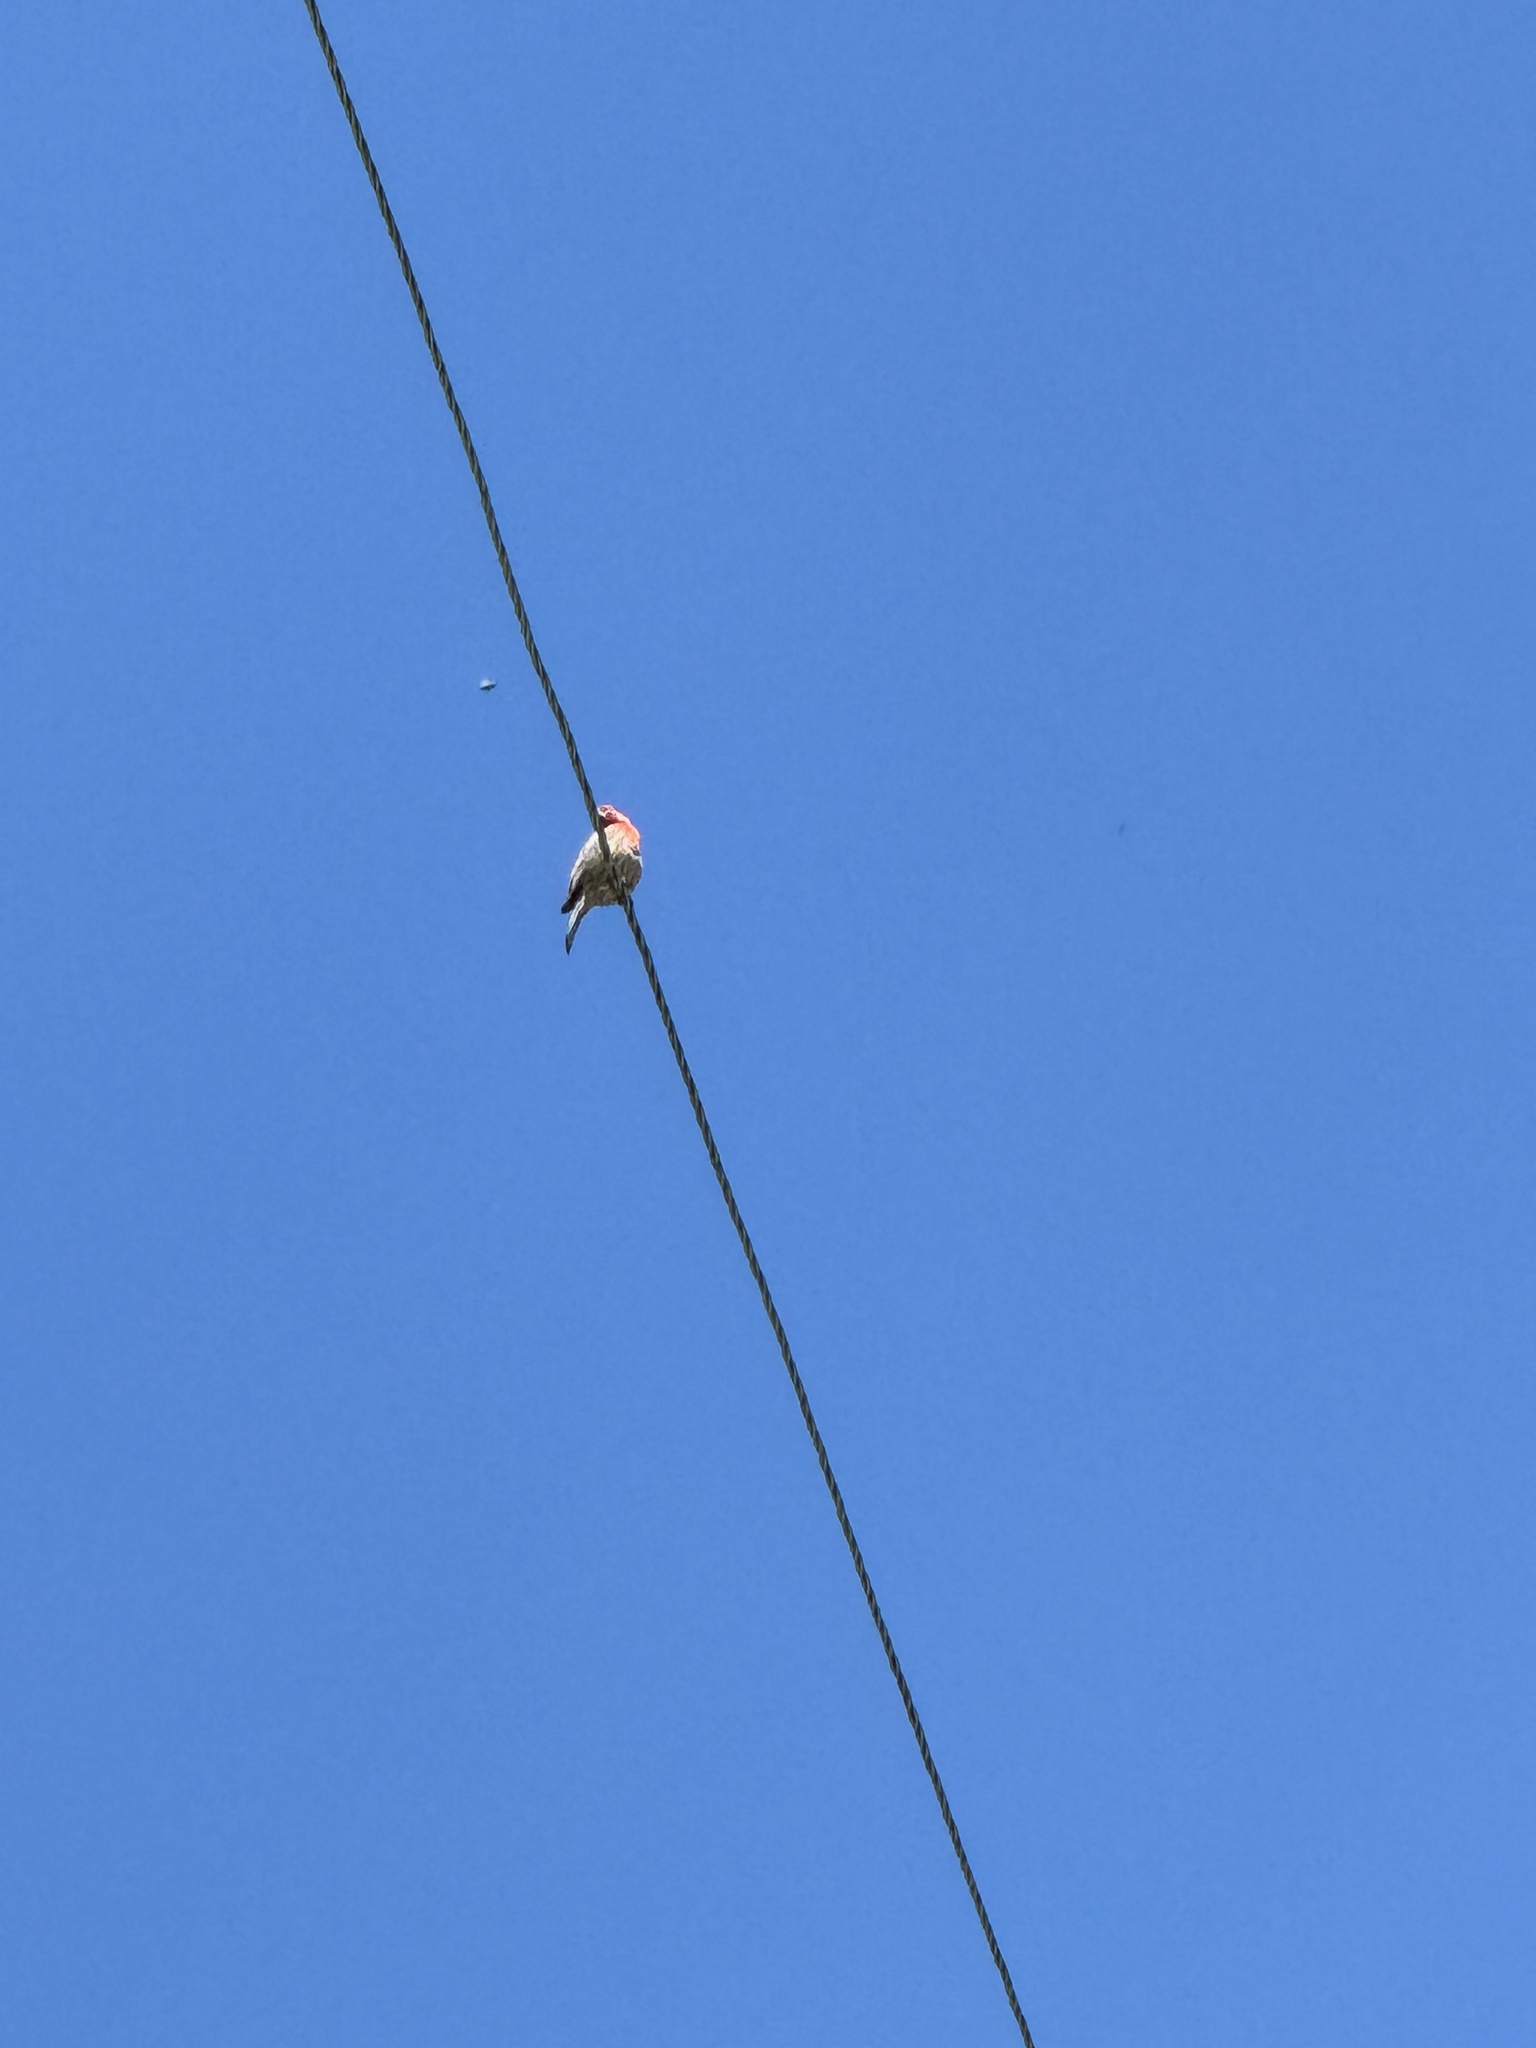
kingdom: Animalia
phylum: Chordata
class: Aves
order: Passeriformes
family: Fringillidae
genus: Haemorhous
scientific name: Haemorhous mexicanus
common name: House finch
